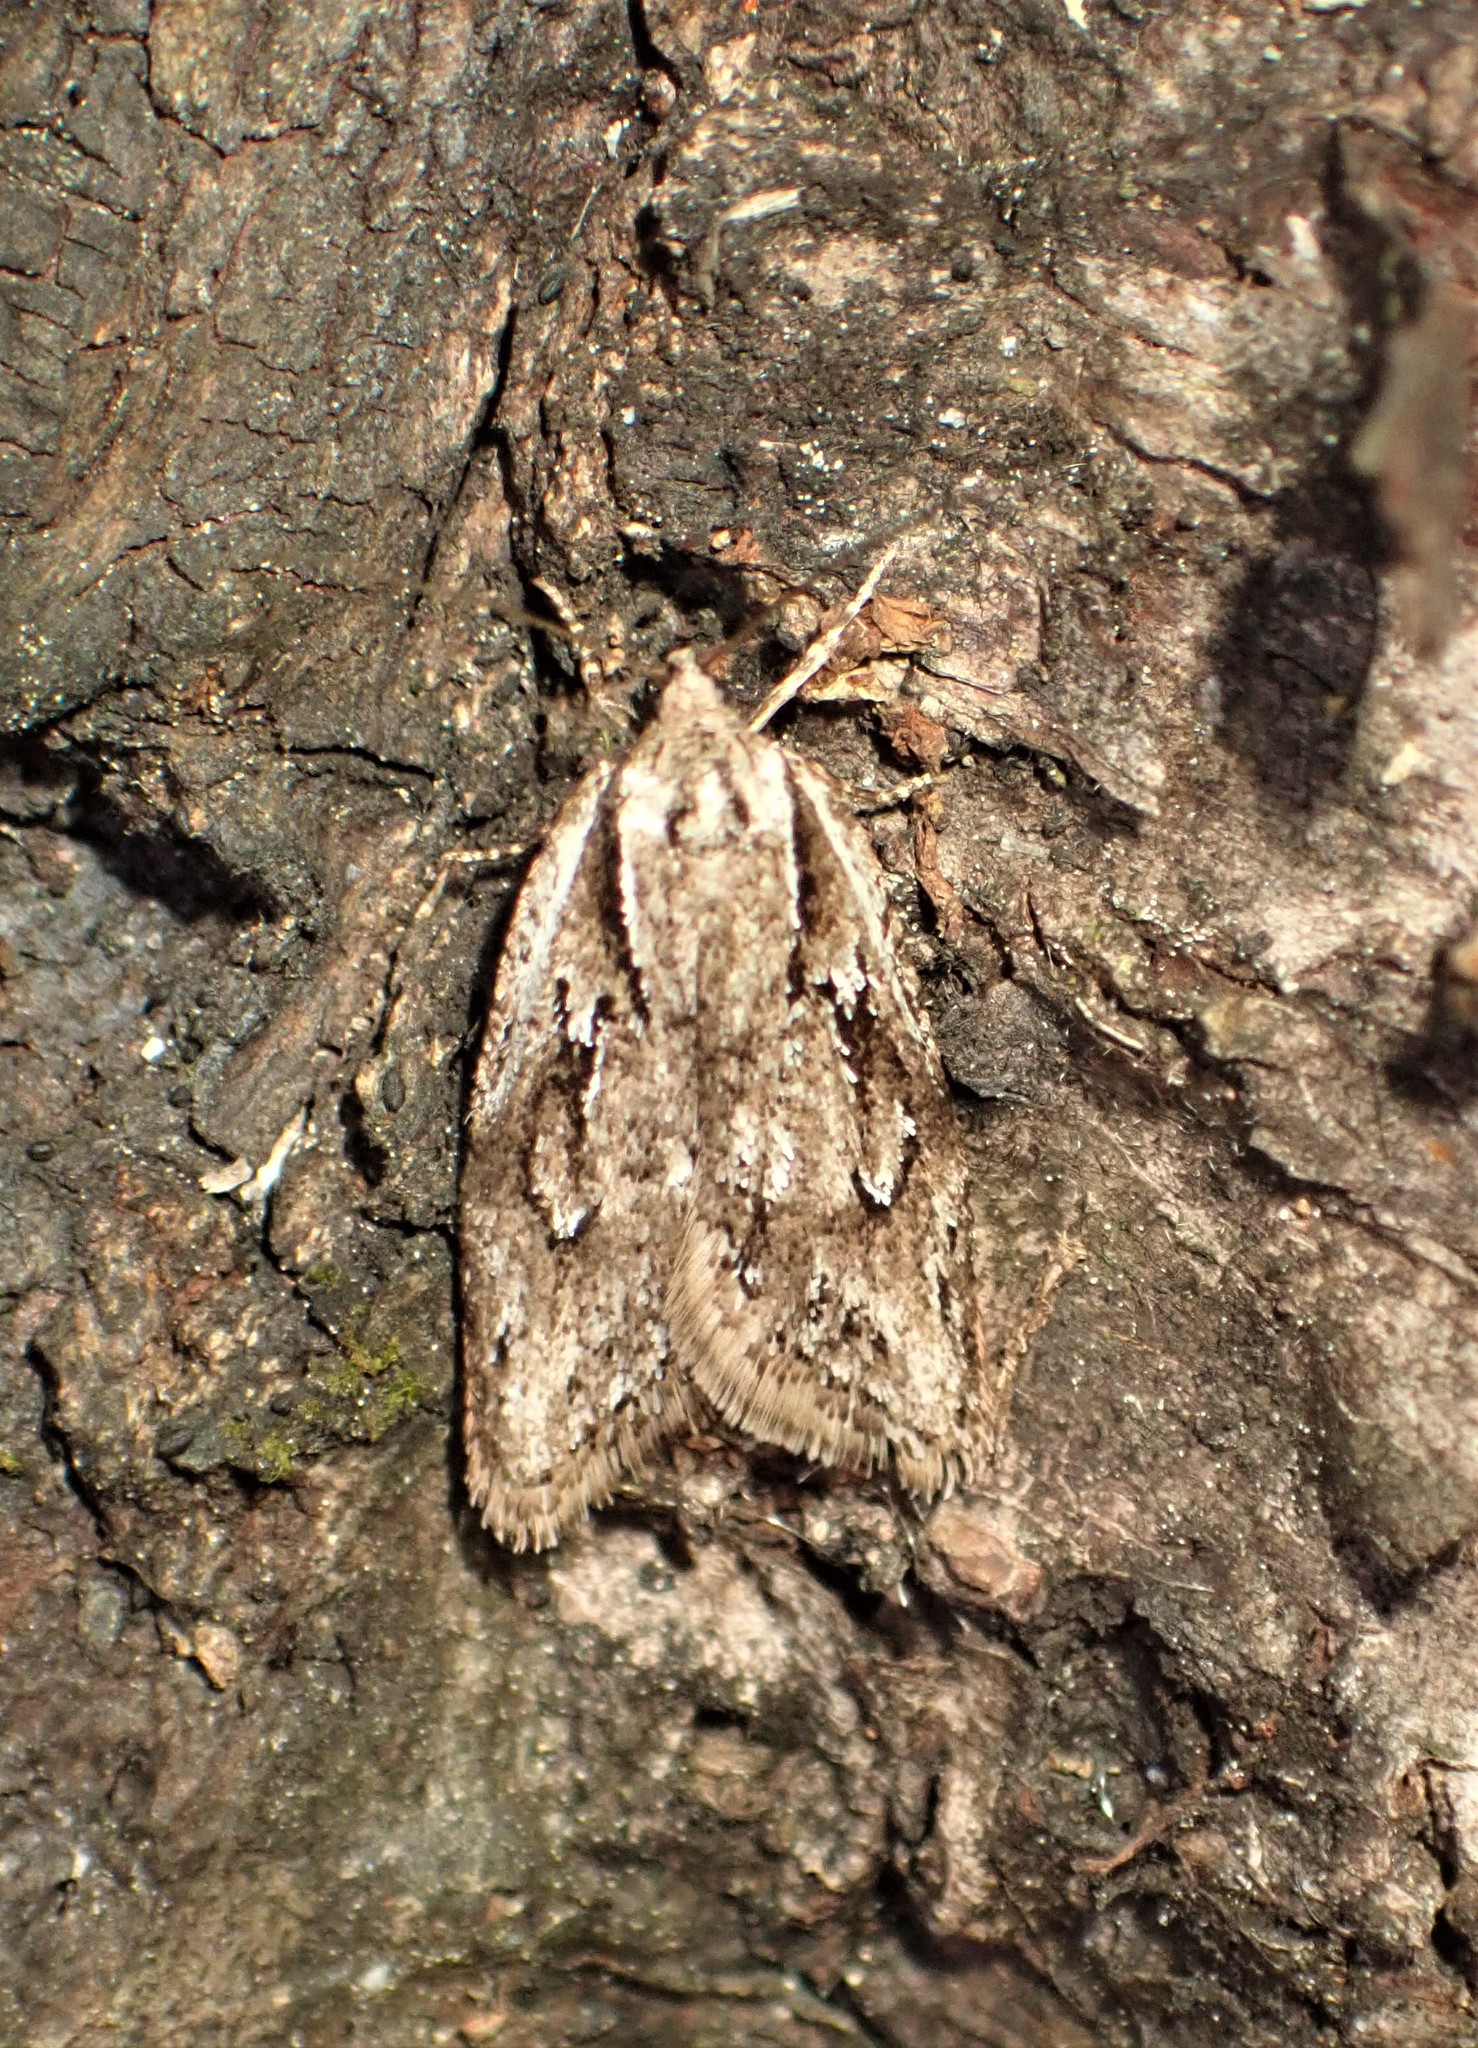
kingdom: Animalia
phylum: Arthropoda
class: Insecta
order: Lepidoptera
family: Depressariidae
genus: Semioscopis
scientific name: Semioscopis aurorella
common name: Aurora flatbody moth
